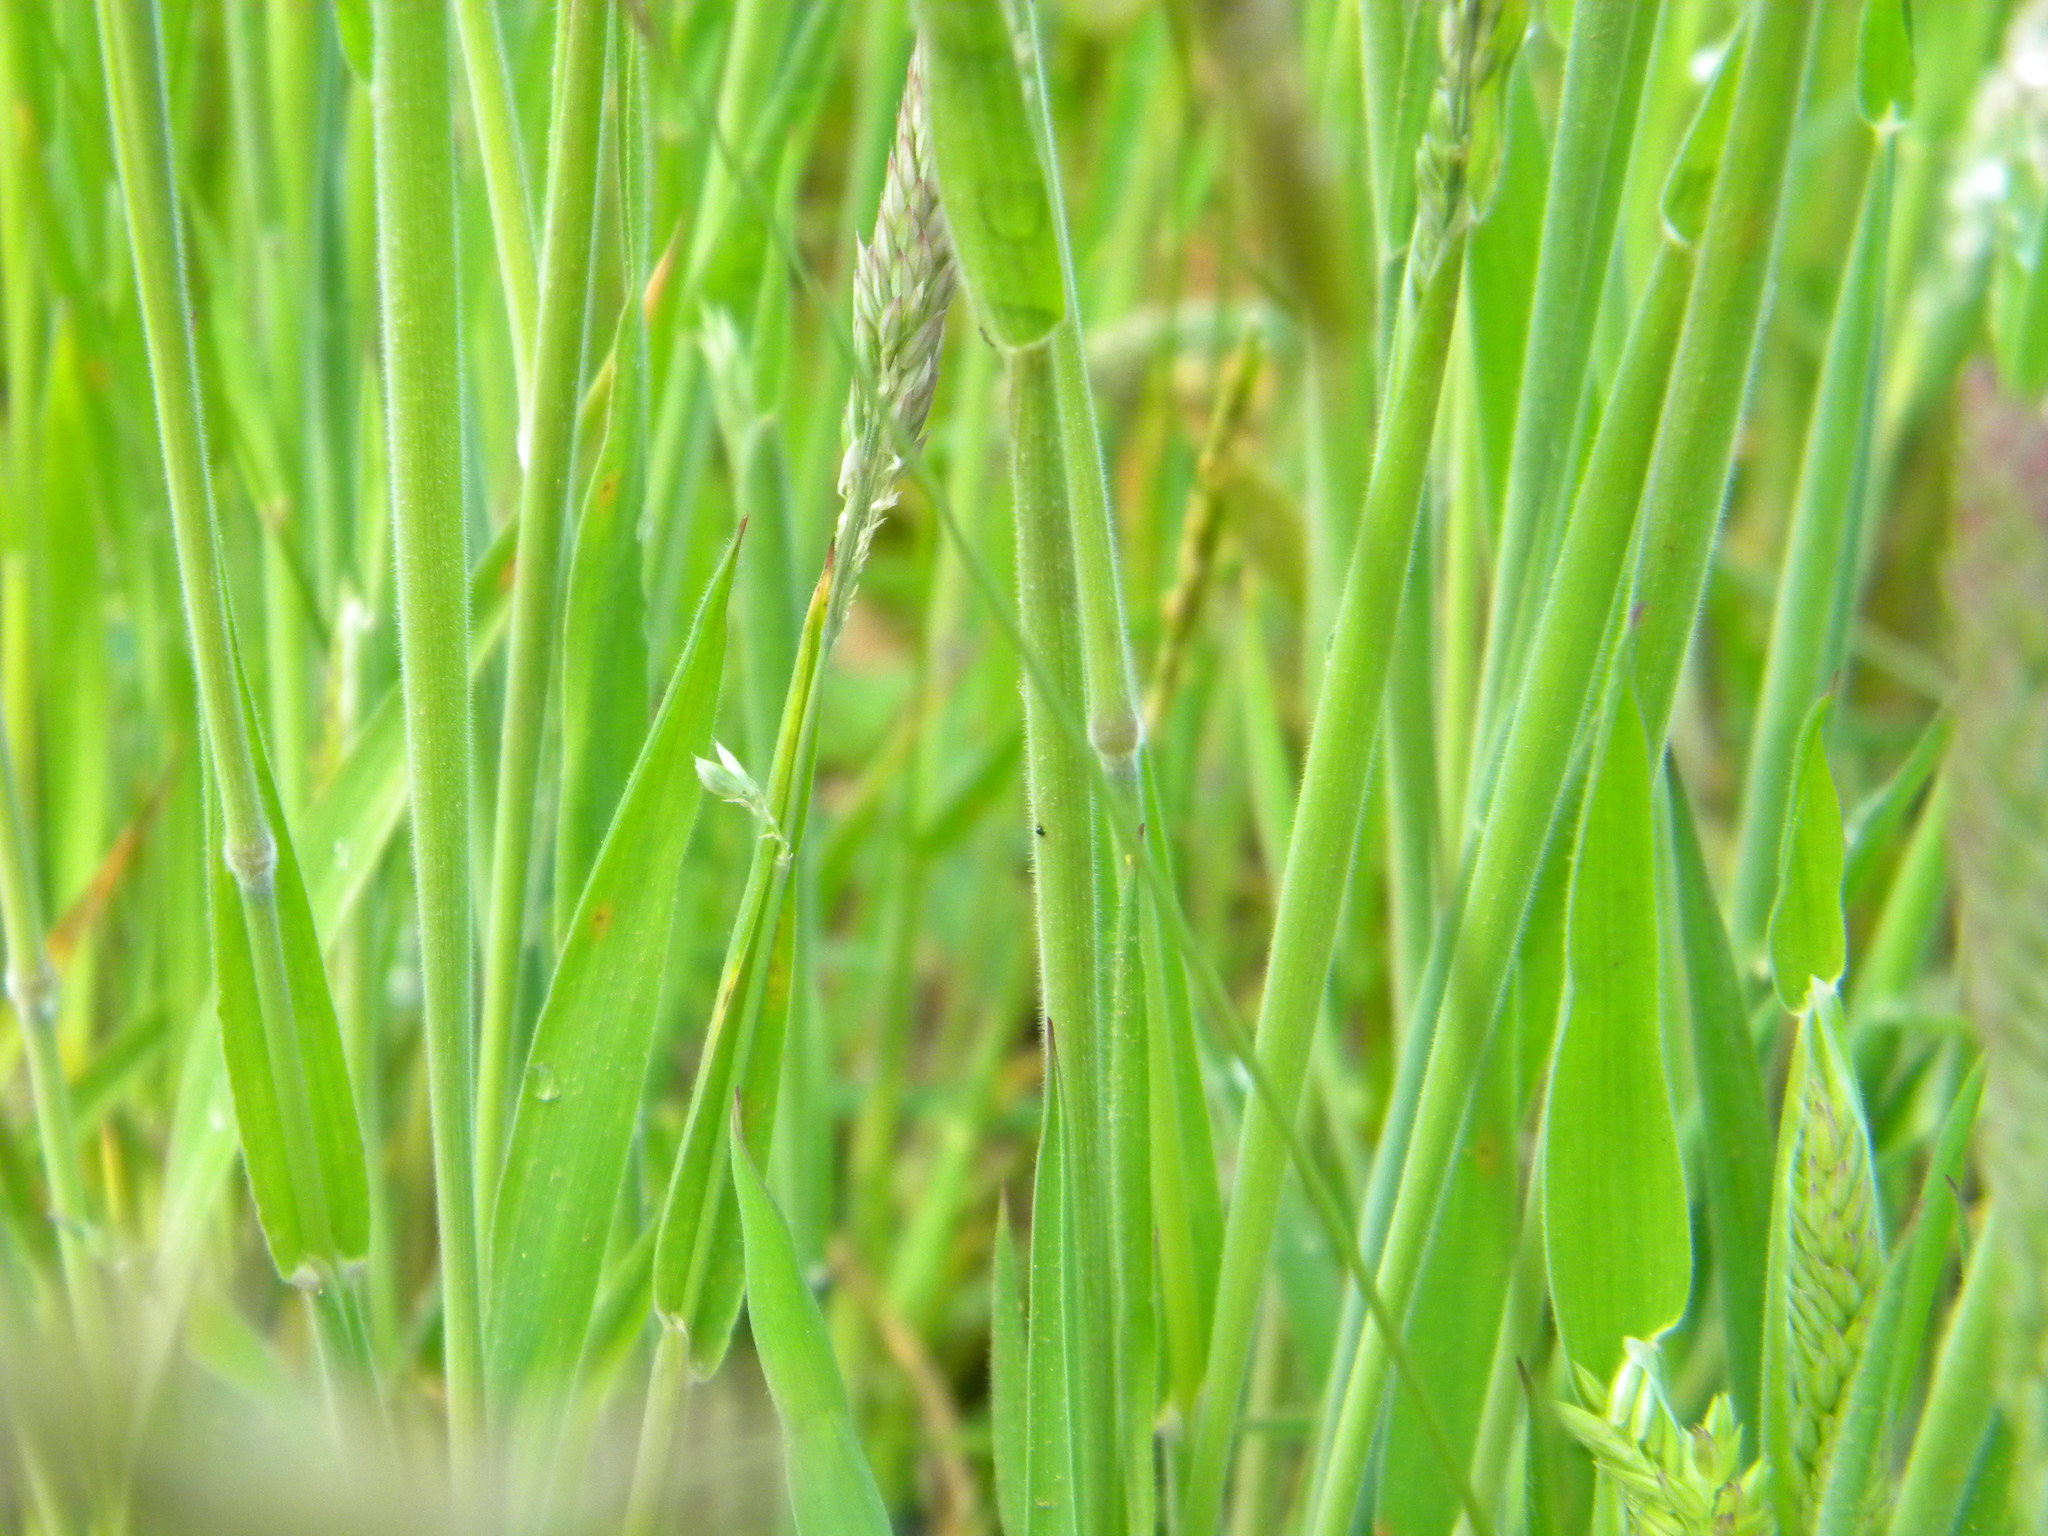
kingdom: Plantae
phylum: Tracheophyta
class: Liliopsida
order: Poales
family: Poaceae
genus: Holcus
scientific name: Holcus lanatus
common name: Yorkshire-fog
